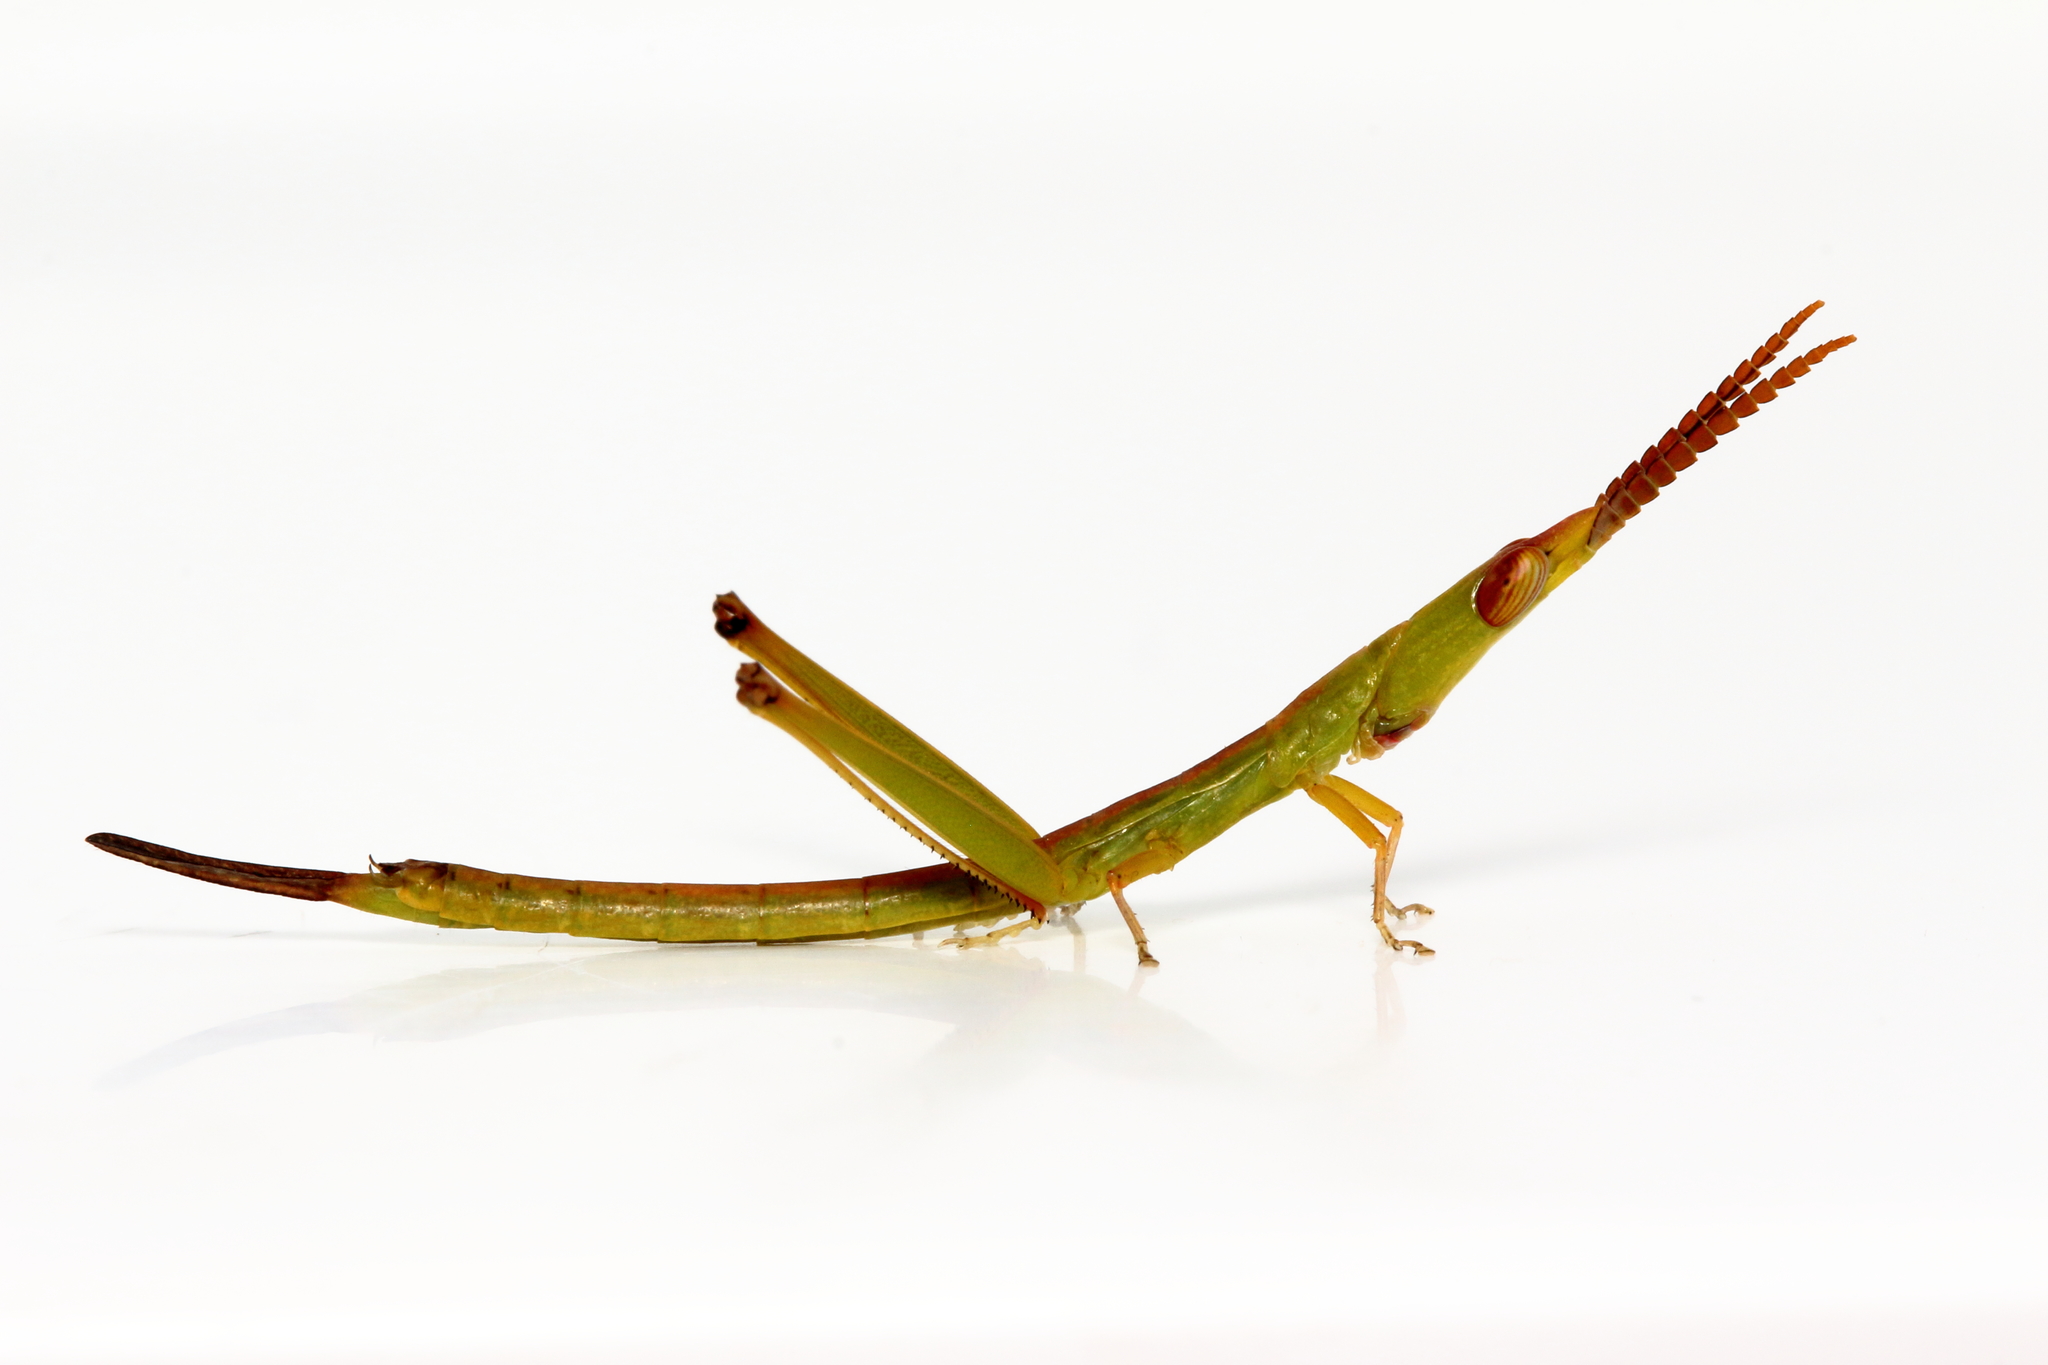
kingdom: Animalia
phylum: Arthropoda
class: Insecta
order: Orthoptera
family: Morabidae
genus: Warramaba
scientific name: Warramaba grandis
